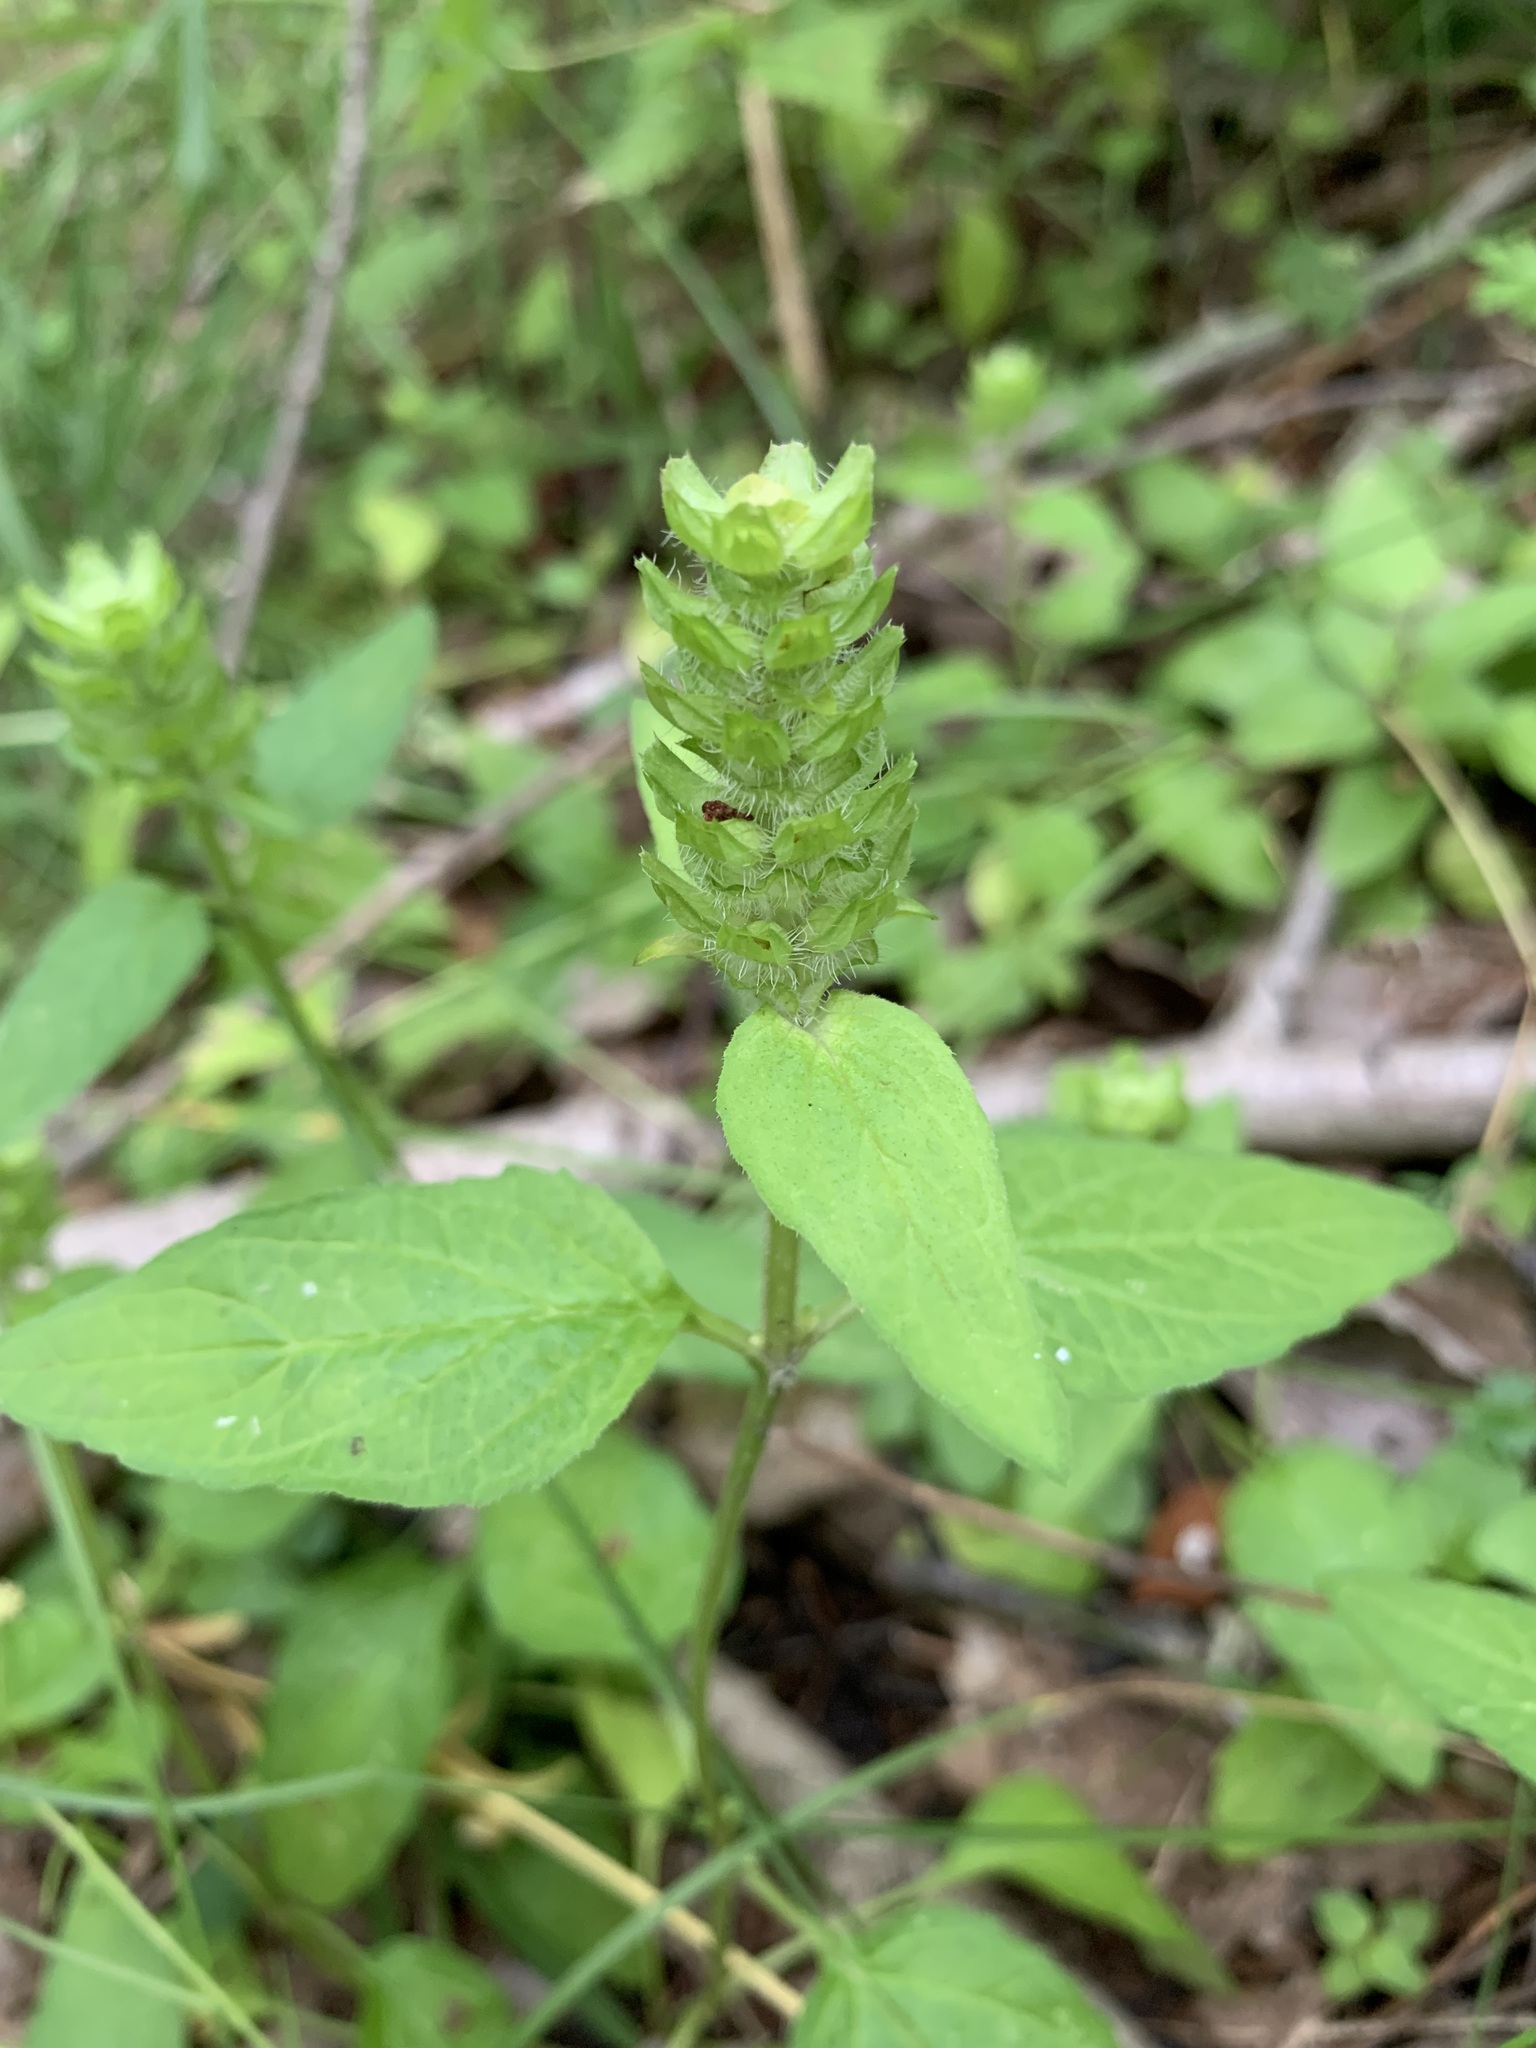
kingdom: Plantae
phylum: Tracheophyta
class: Magnoliopsida
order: Lamiales
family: Lamiaceae
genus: Prunella
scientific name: Prunella vulgaris
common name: Heal-all
